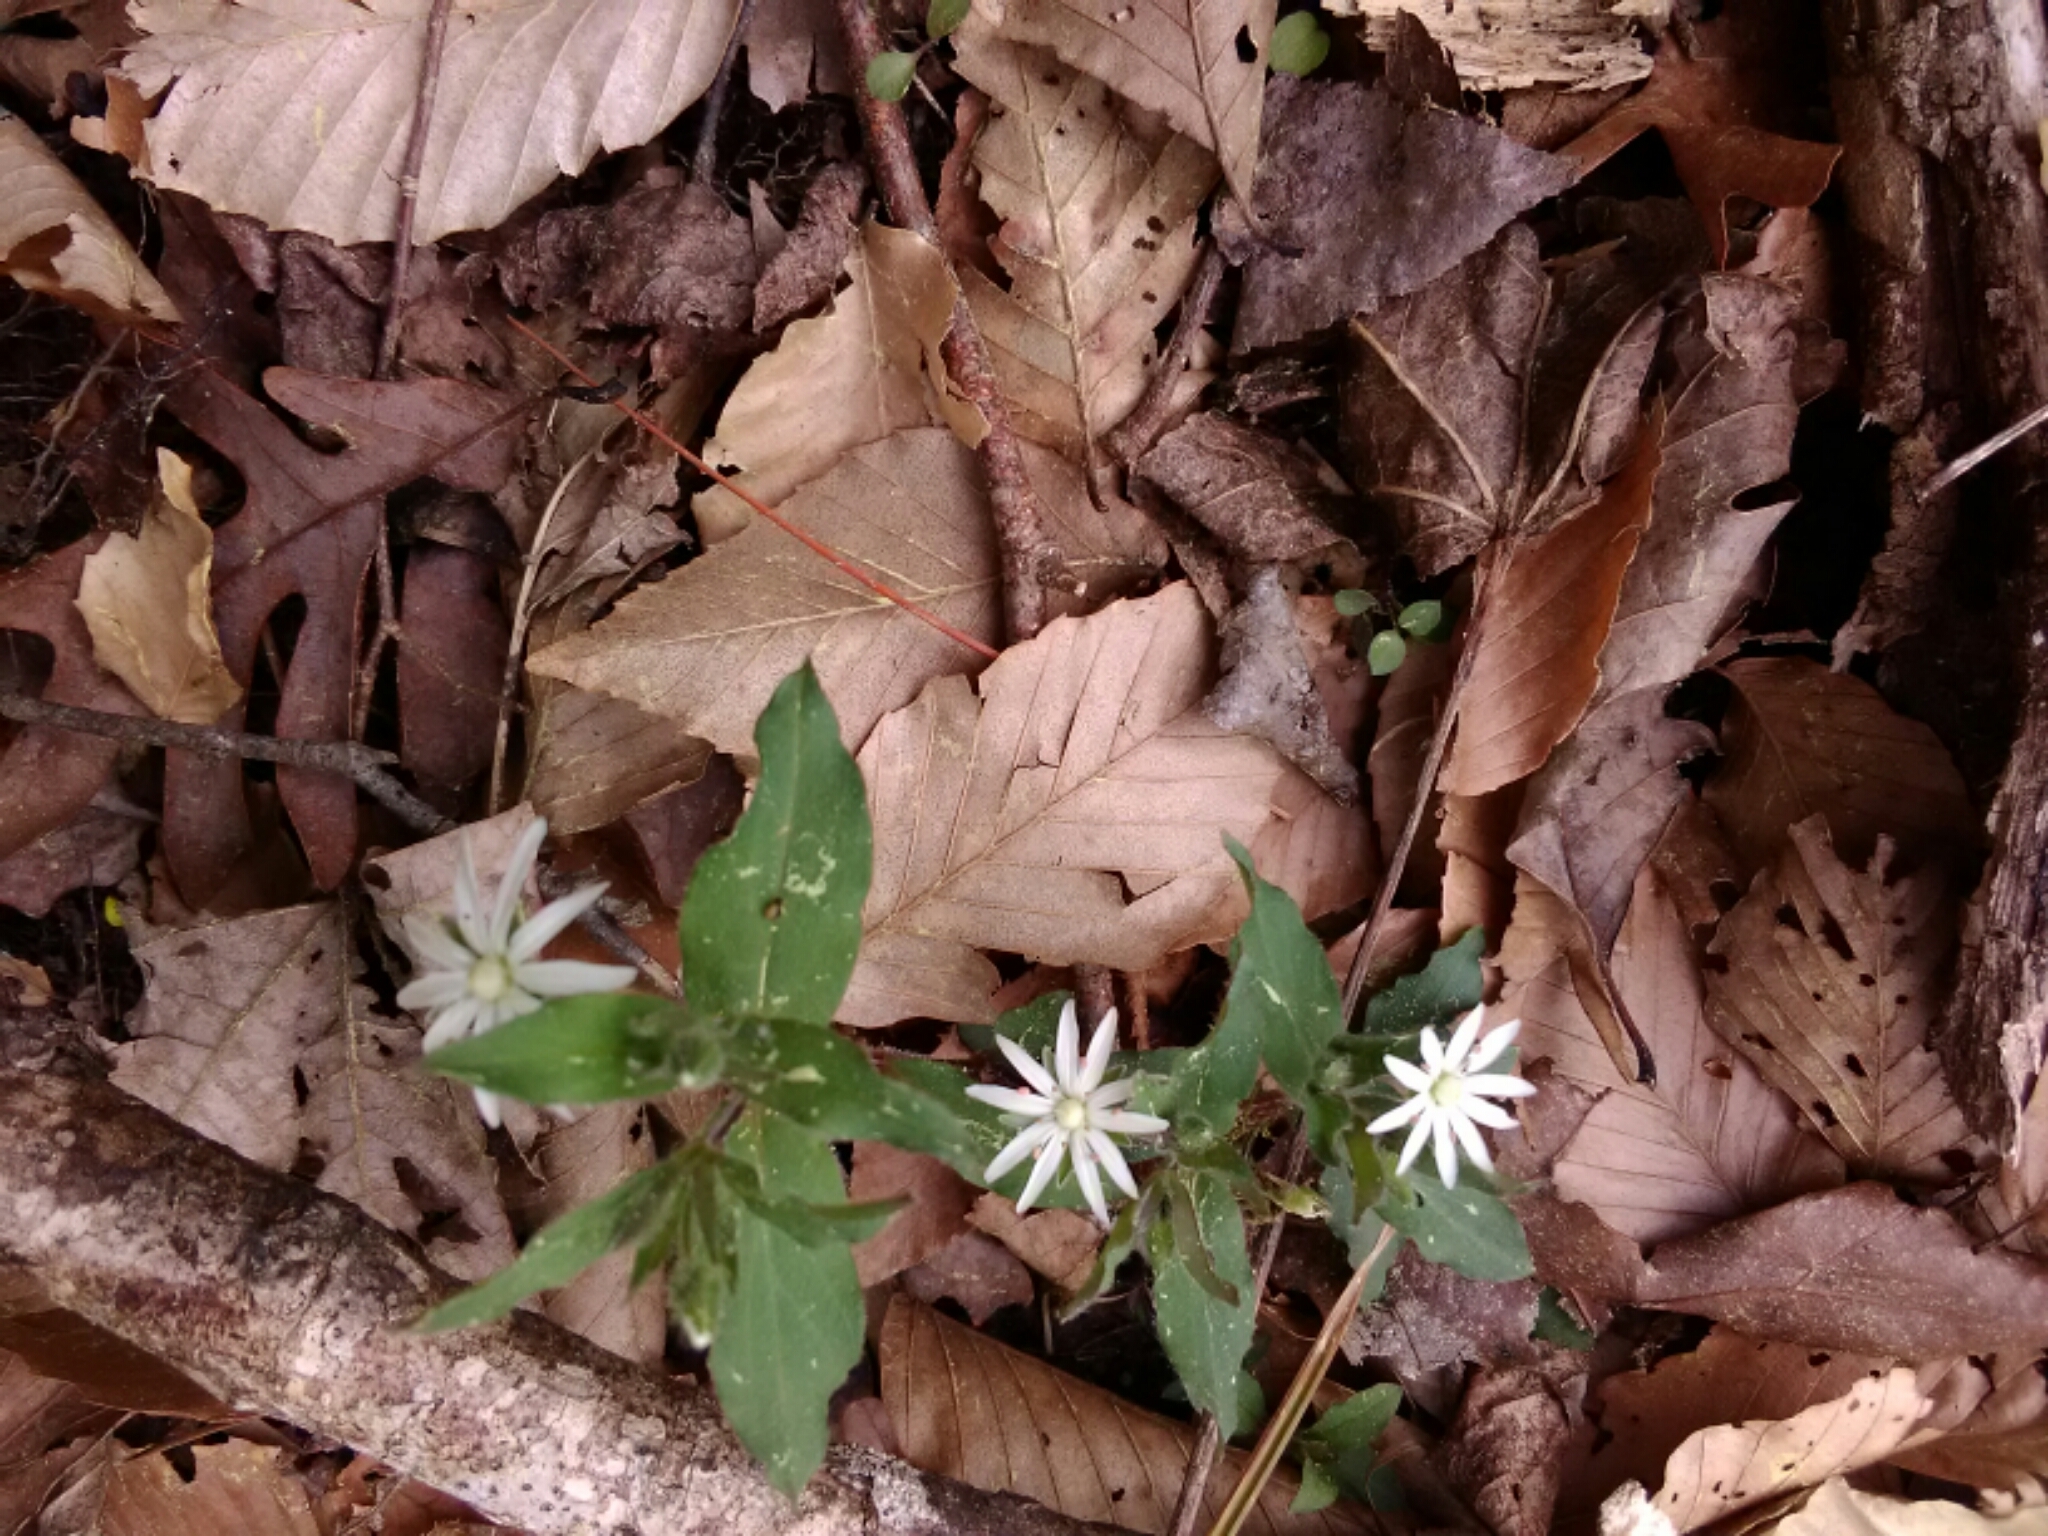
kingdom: Plantae
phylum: Tracheophyta
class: Magnoliopsida
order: Caryophyllales
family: Caryophyllaceae
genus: Stellaria
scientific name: Stellaria pubera
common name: Star chickweed
